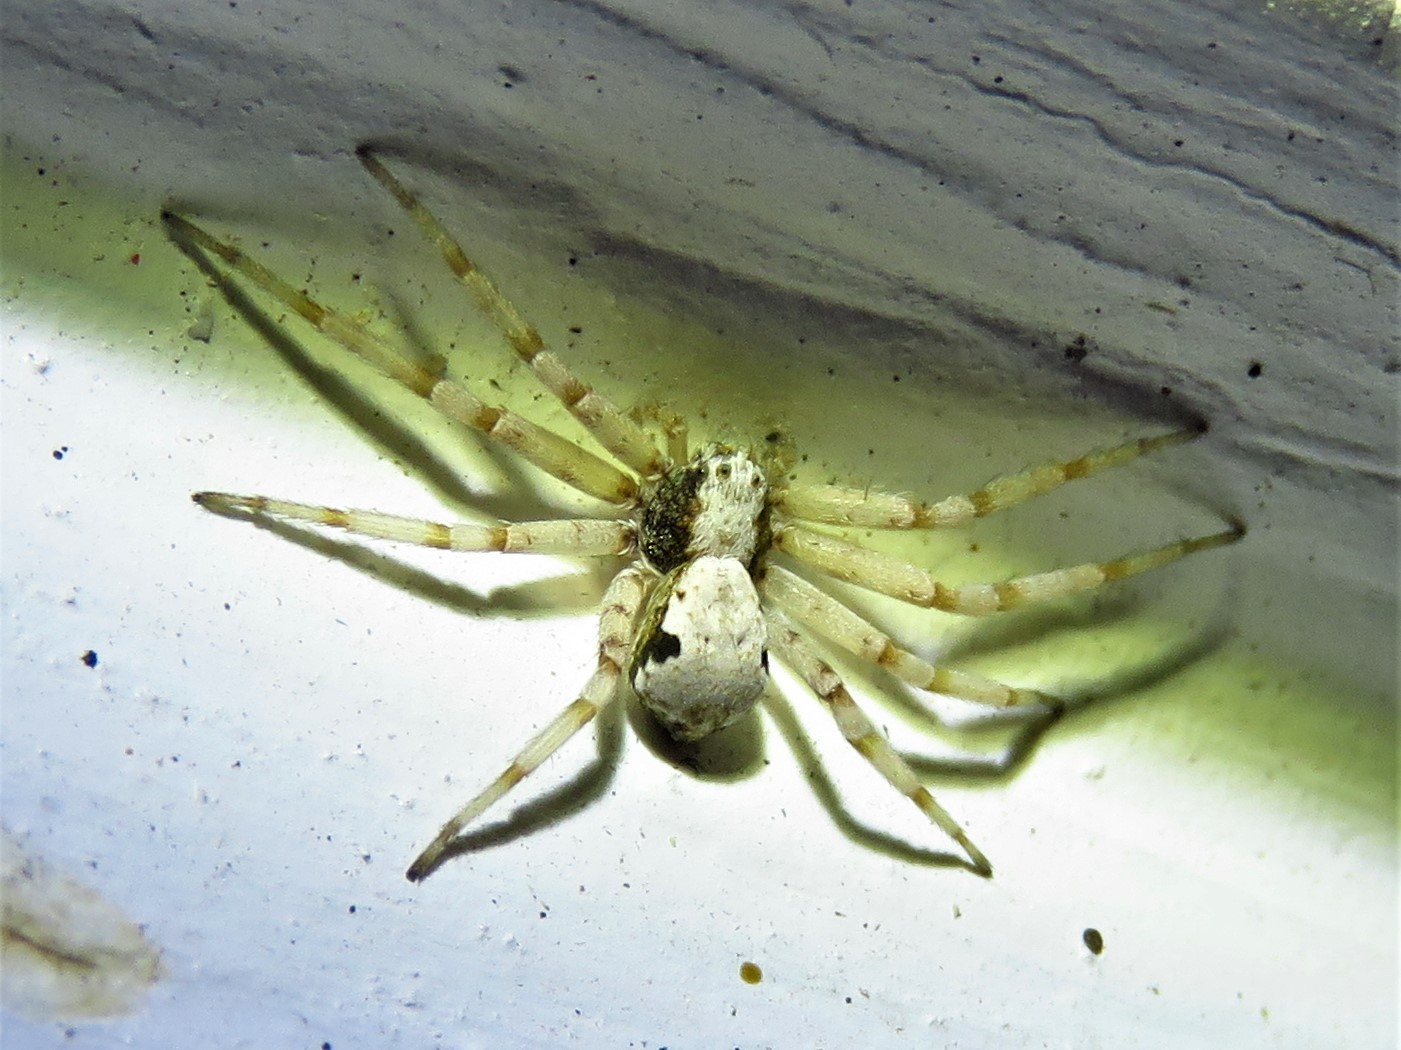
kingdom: Animalia
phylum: Arthropoda
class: Arachnida
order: Araneae
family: Philodromidae
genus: Philodromus
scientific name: Philodromus marxi
